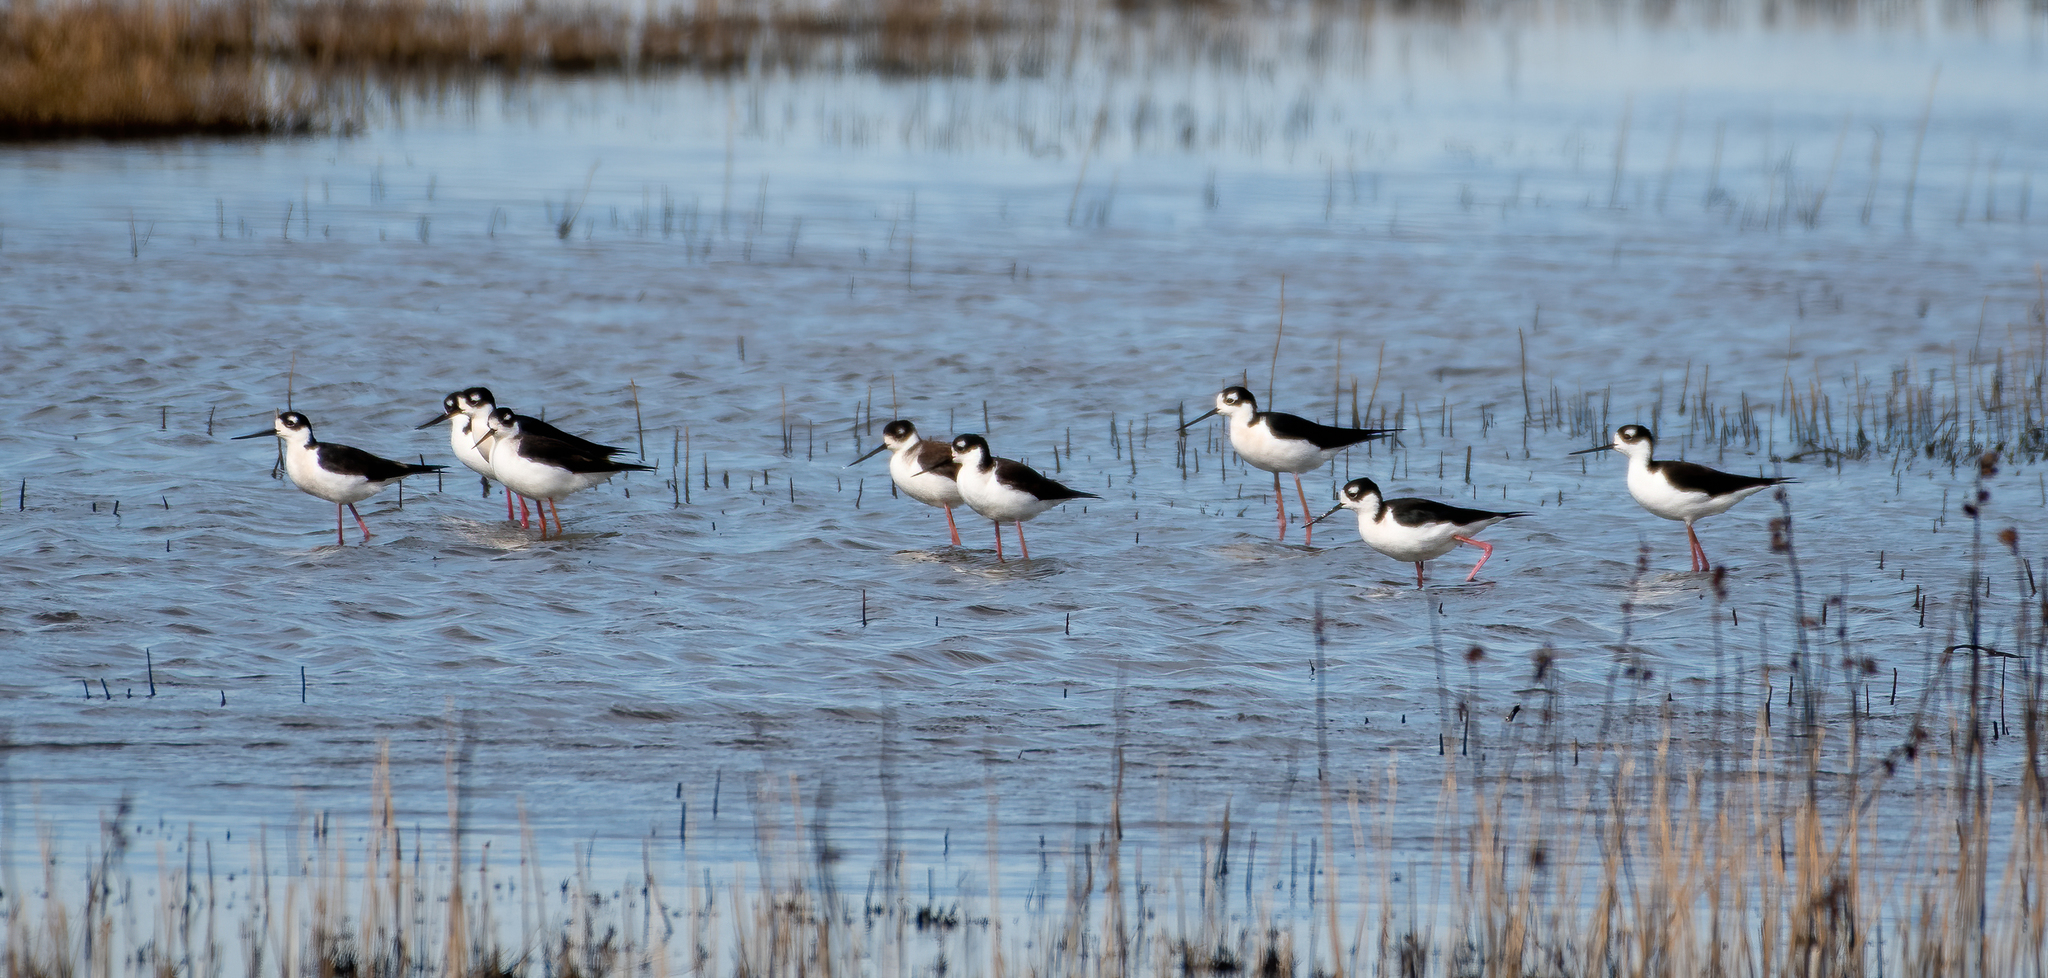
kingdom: Animalia
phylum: Chordata
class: Aves
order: Charadriiformes
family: Recurvirostridae
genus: Himantopus
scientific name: Himantopus mexicanus
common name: Black-necked stilt
